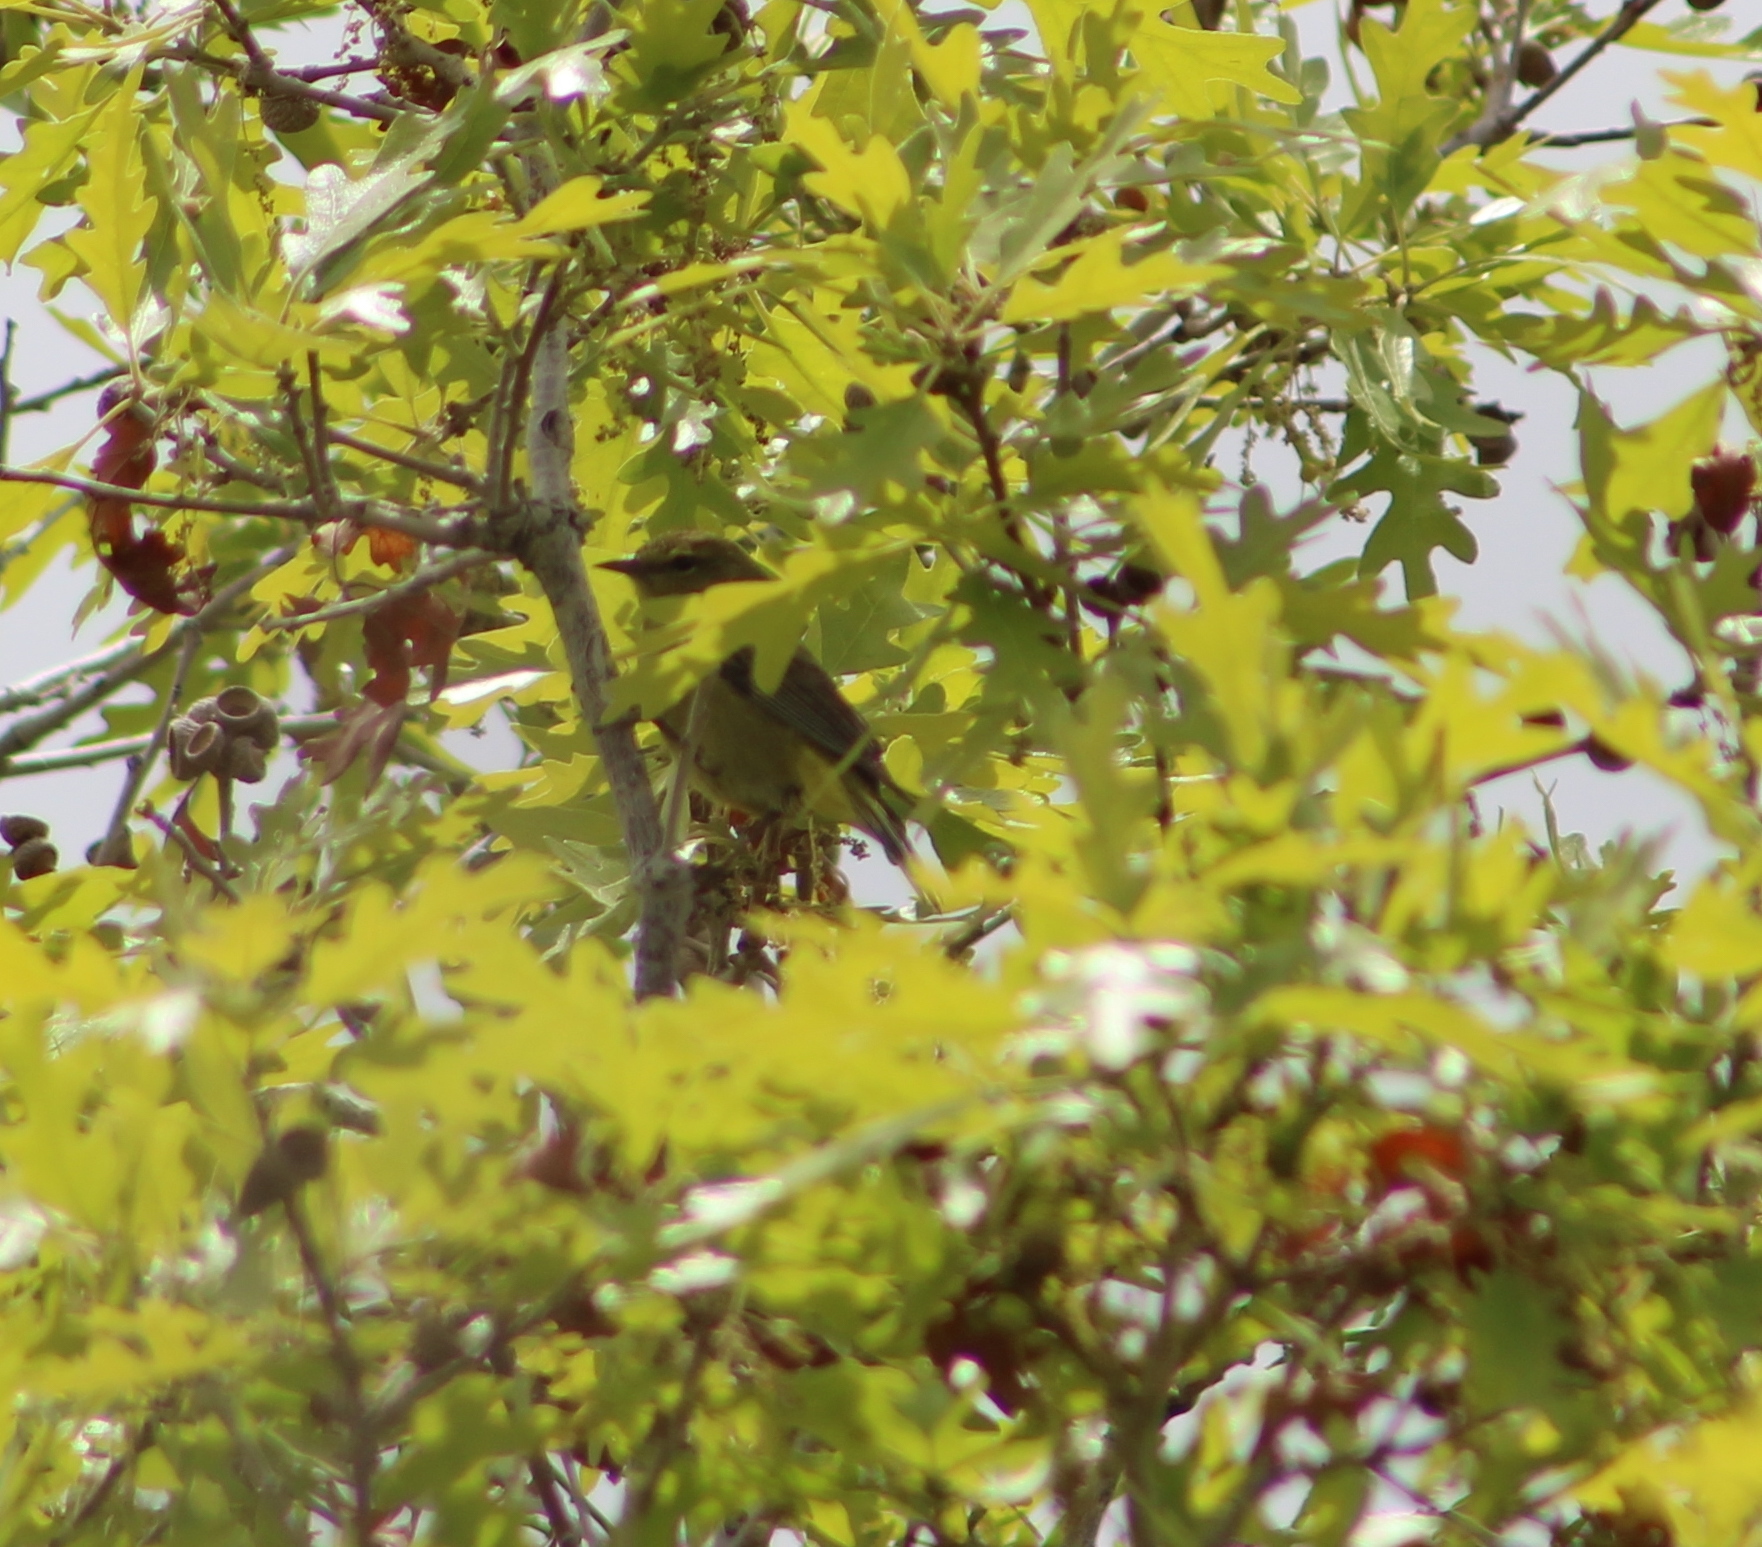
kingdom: Animalia
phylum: Chordata
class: Aves
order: Passeriformes
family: Parulidae
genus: Leiothlypis
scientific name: Leiothlypis celata
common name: Orange-crowned warbler
